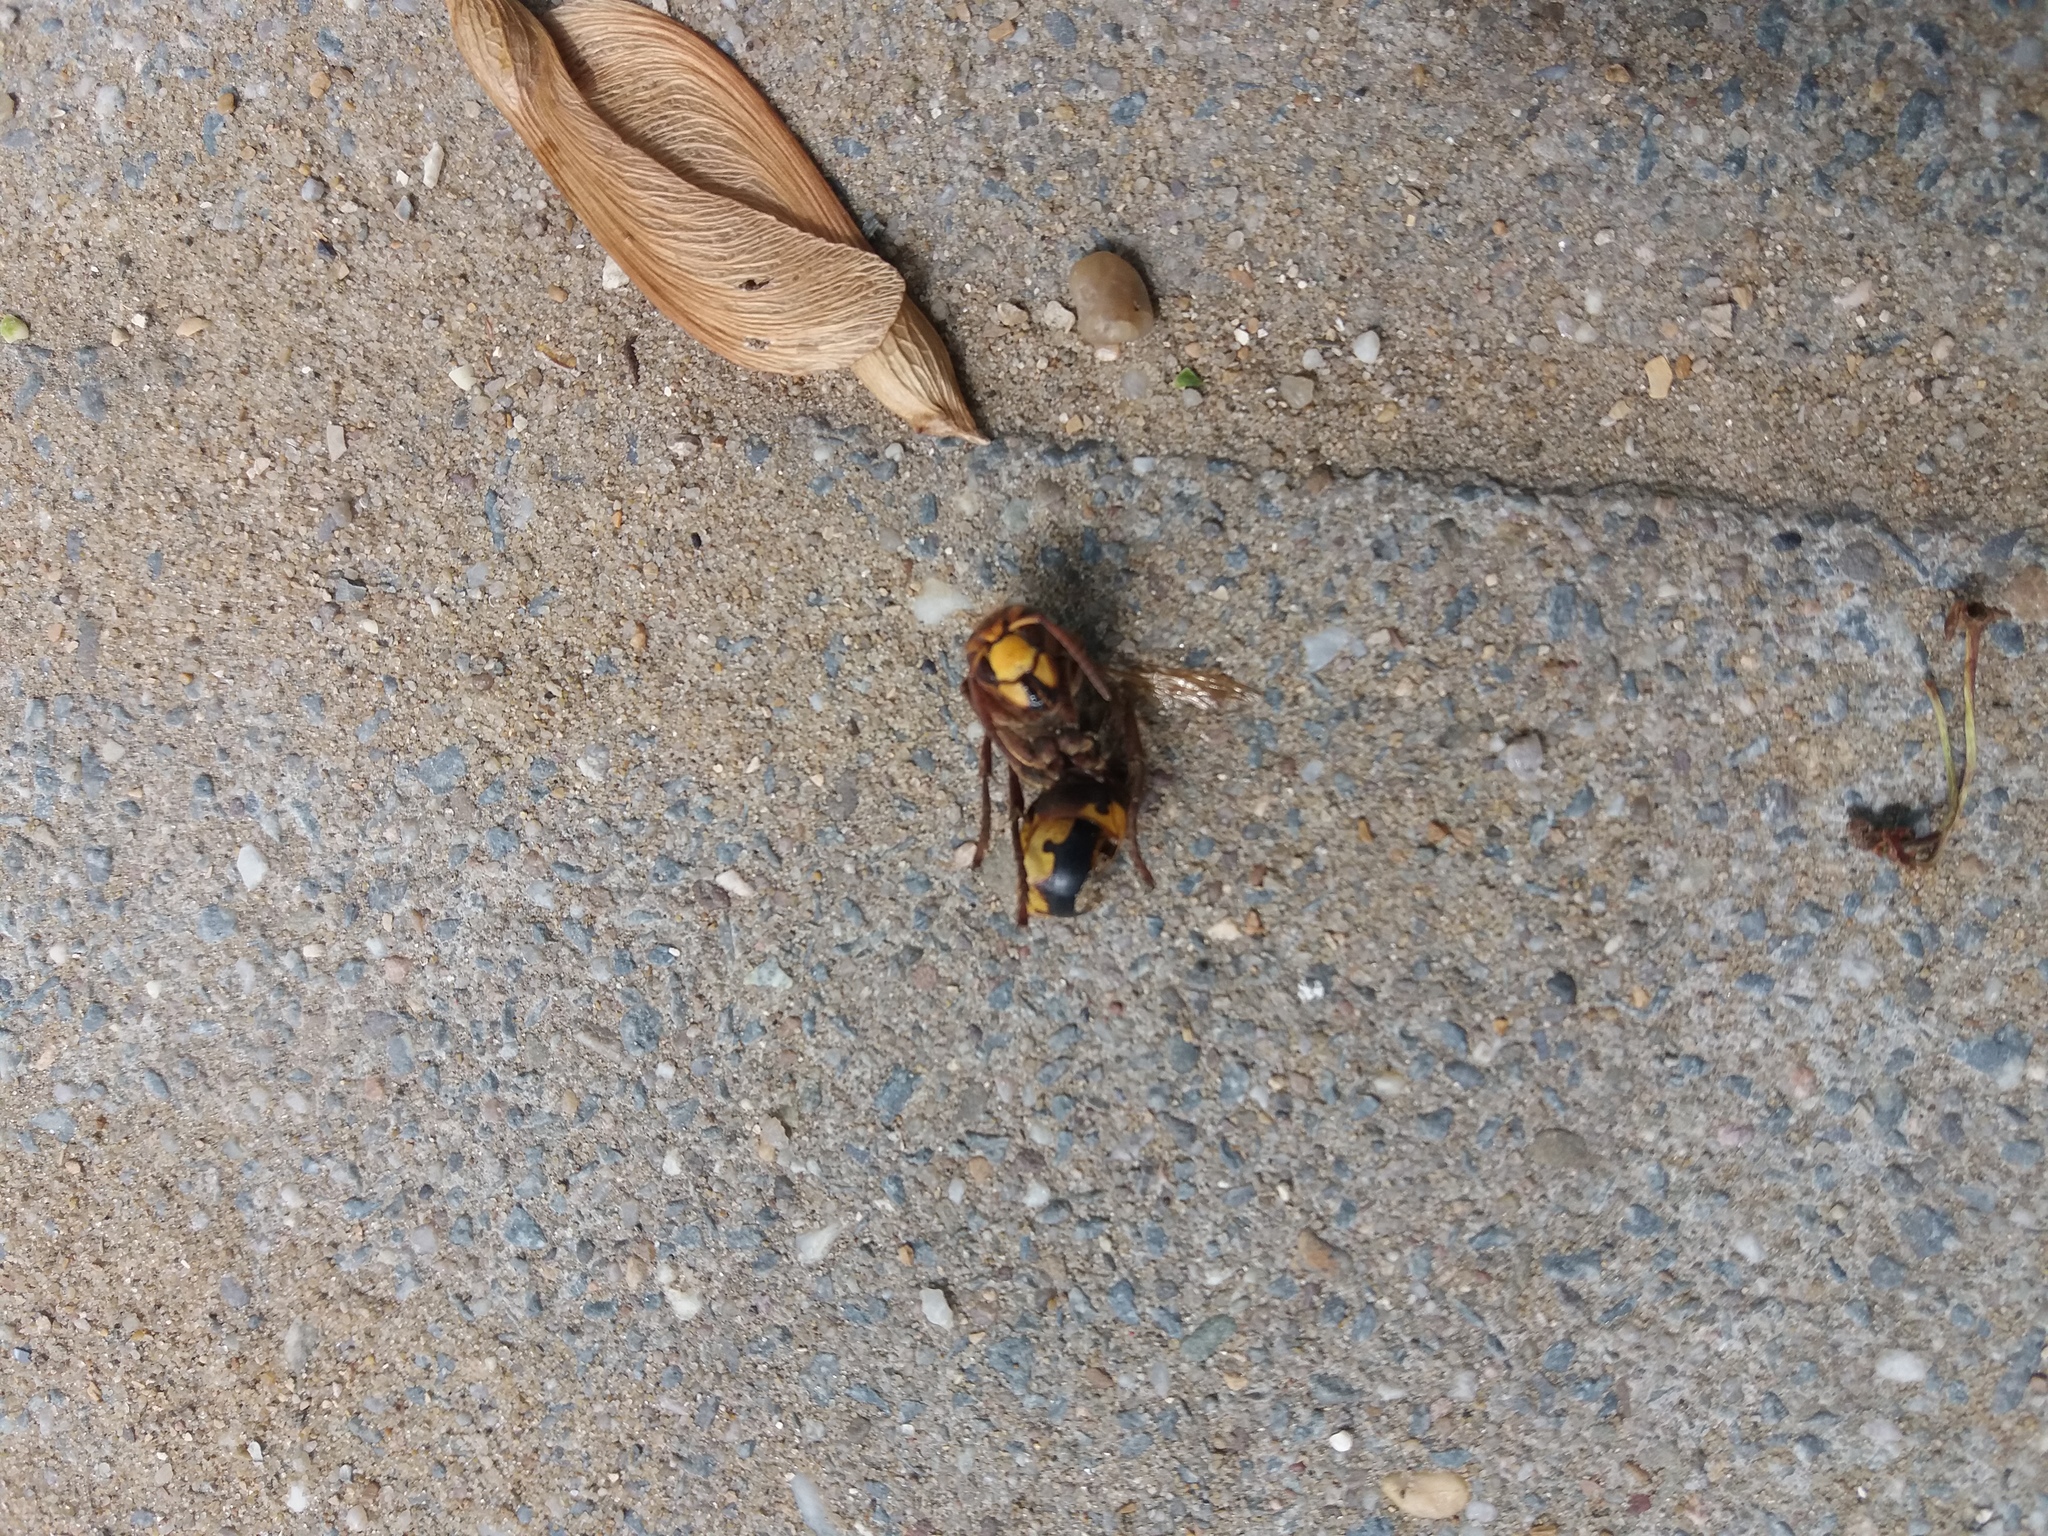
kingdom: Animalia
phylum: Arthropoda
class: Insecta
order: Hymenoptera
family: Vespidae
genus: Vespa
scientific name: Vespa crabro
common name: Hornet
